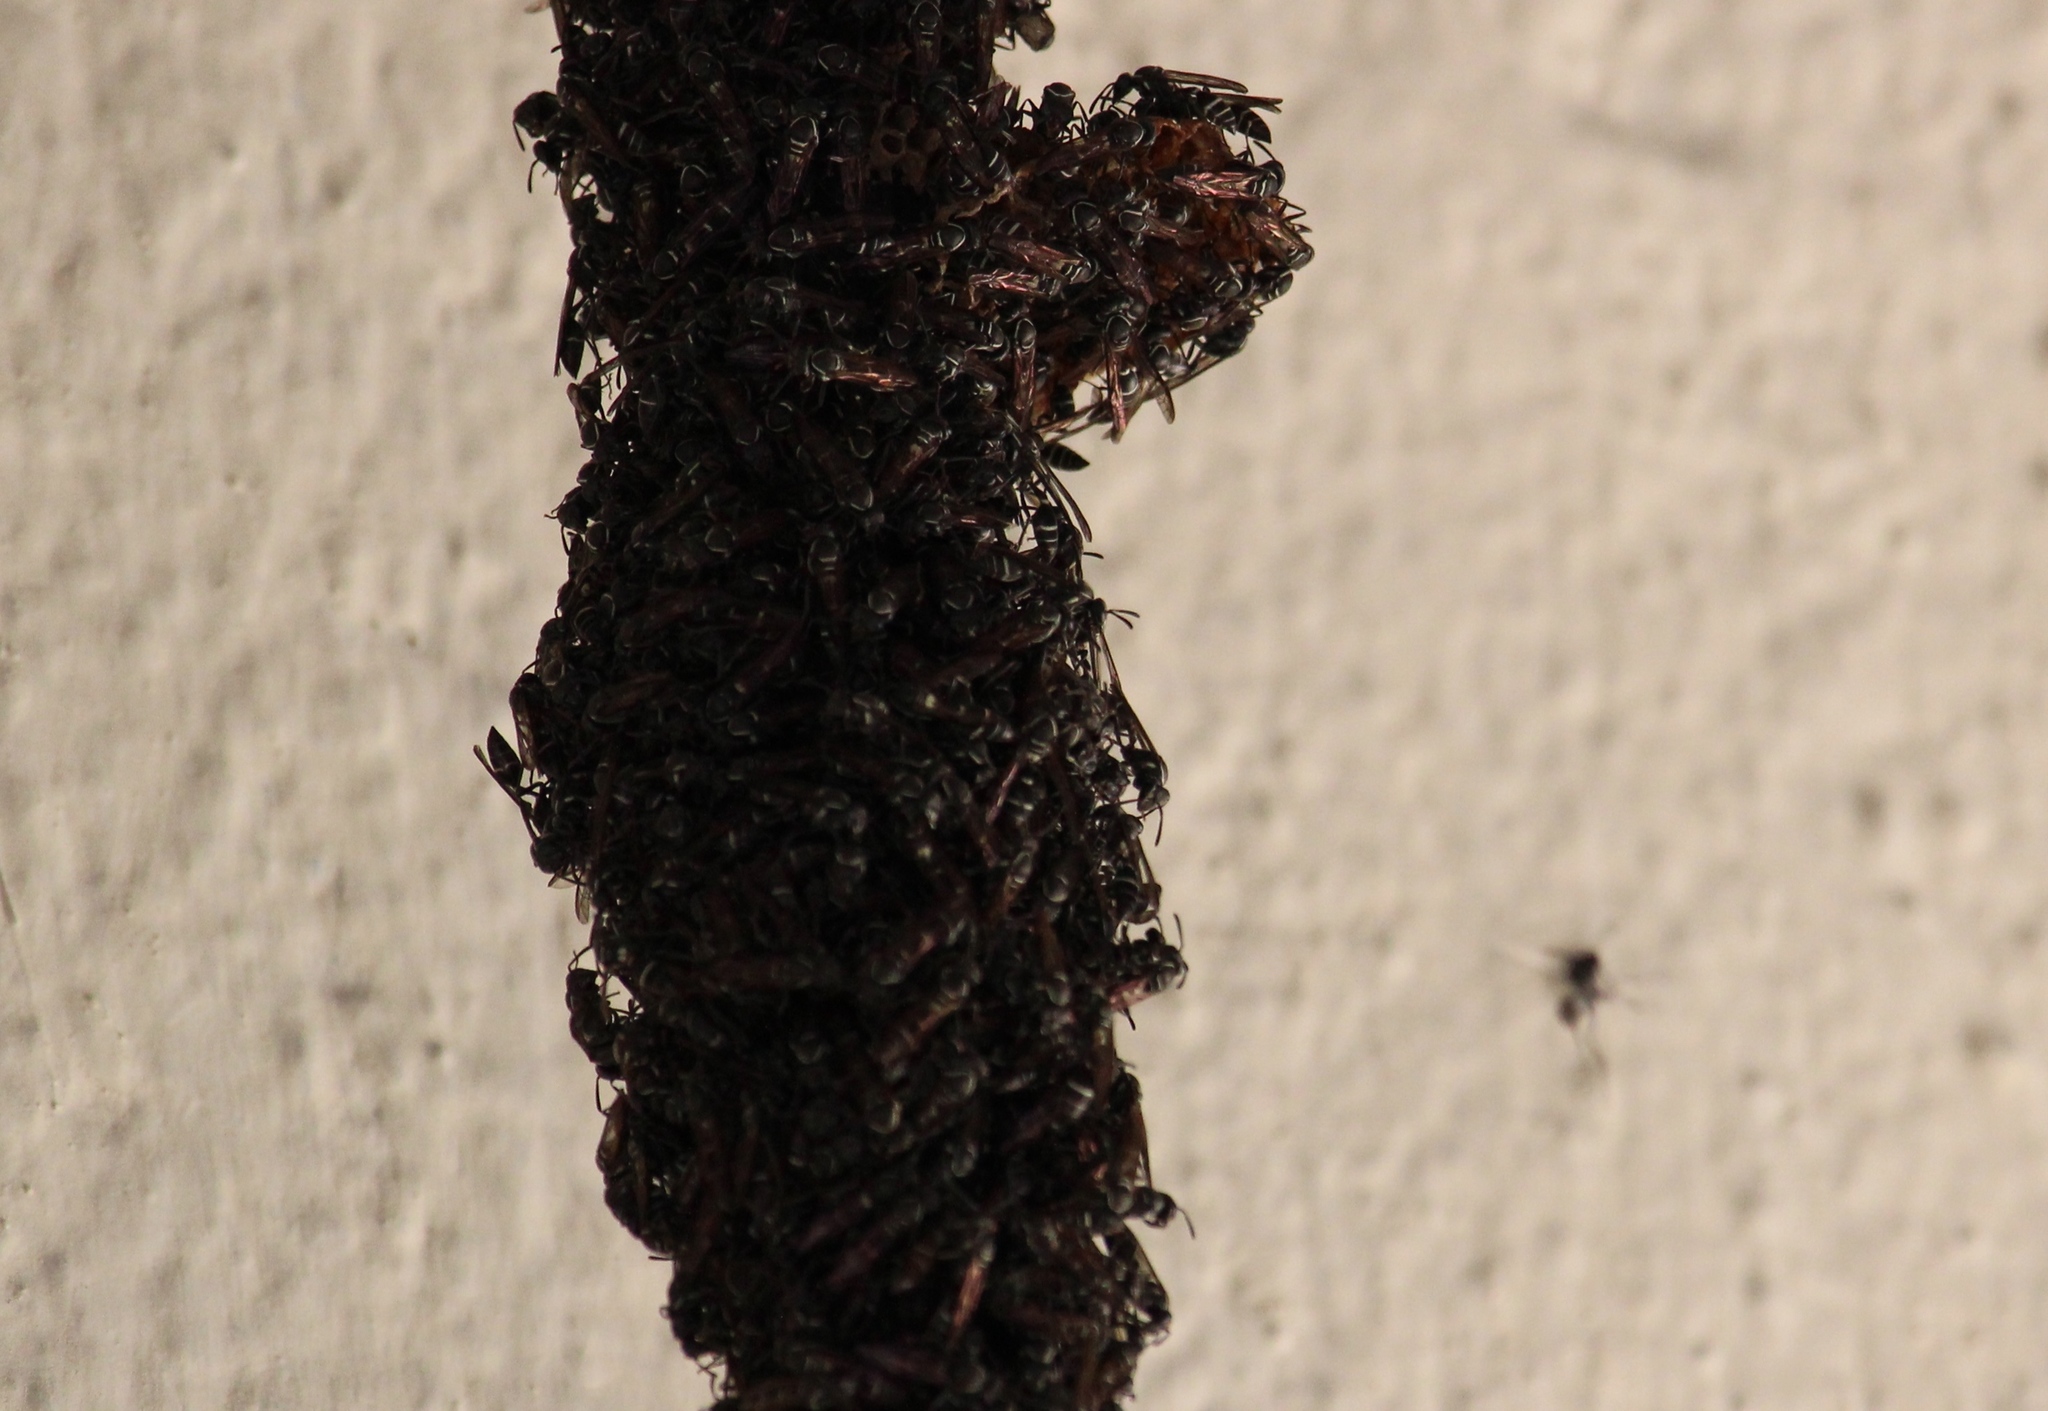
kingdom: Animalia
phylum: Arthropoda
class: Insecta
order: Hymenoptera
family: Eumenidae
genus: Polybia
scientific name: Polybia plebeja
